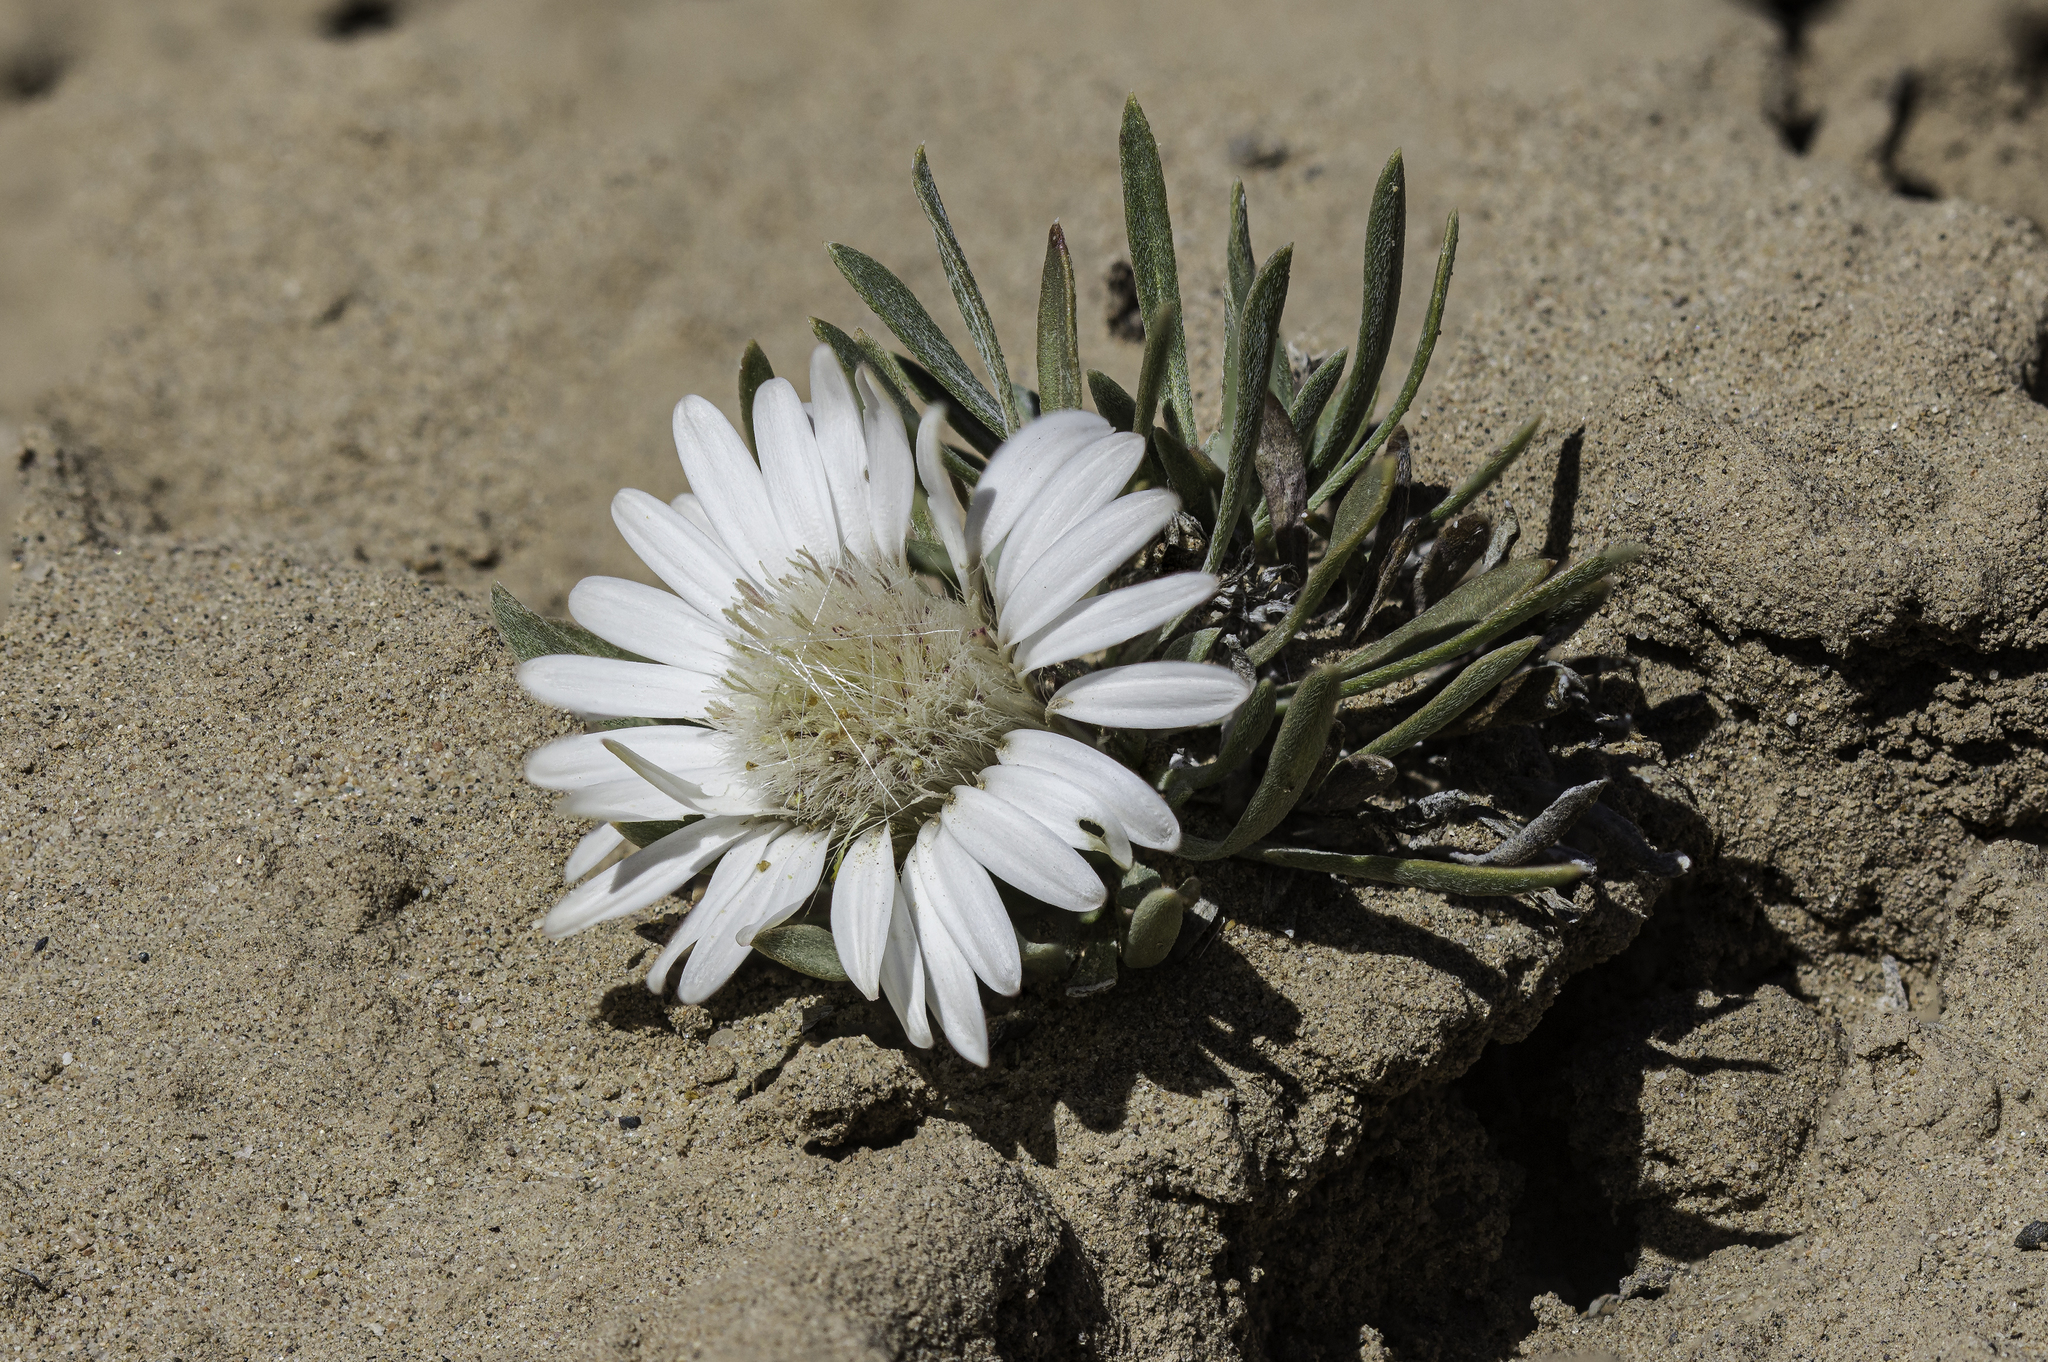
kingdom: Plantae
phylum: Tracheophyta
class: Magnoliopsida
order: Asterales
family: Asteraceae
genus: Townsendia
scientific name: Townsendia exscapa
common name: Dwarf townsendia
